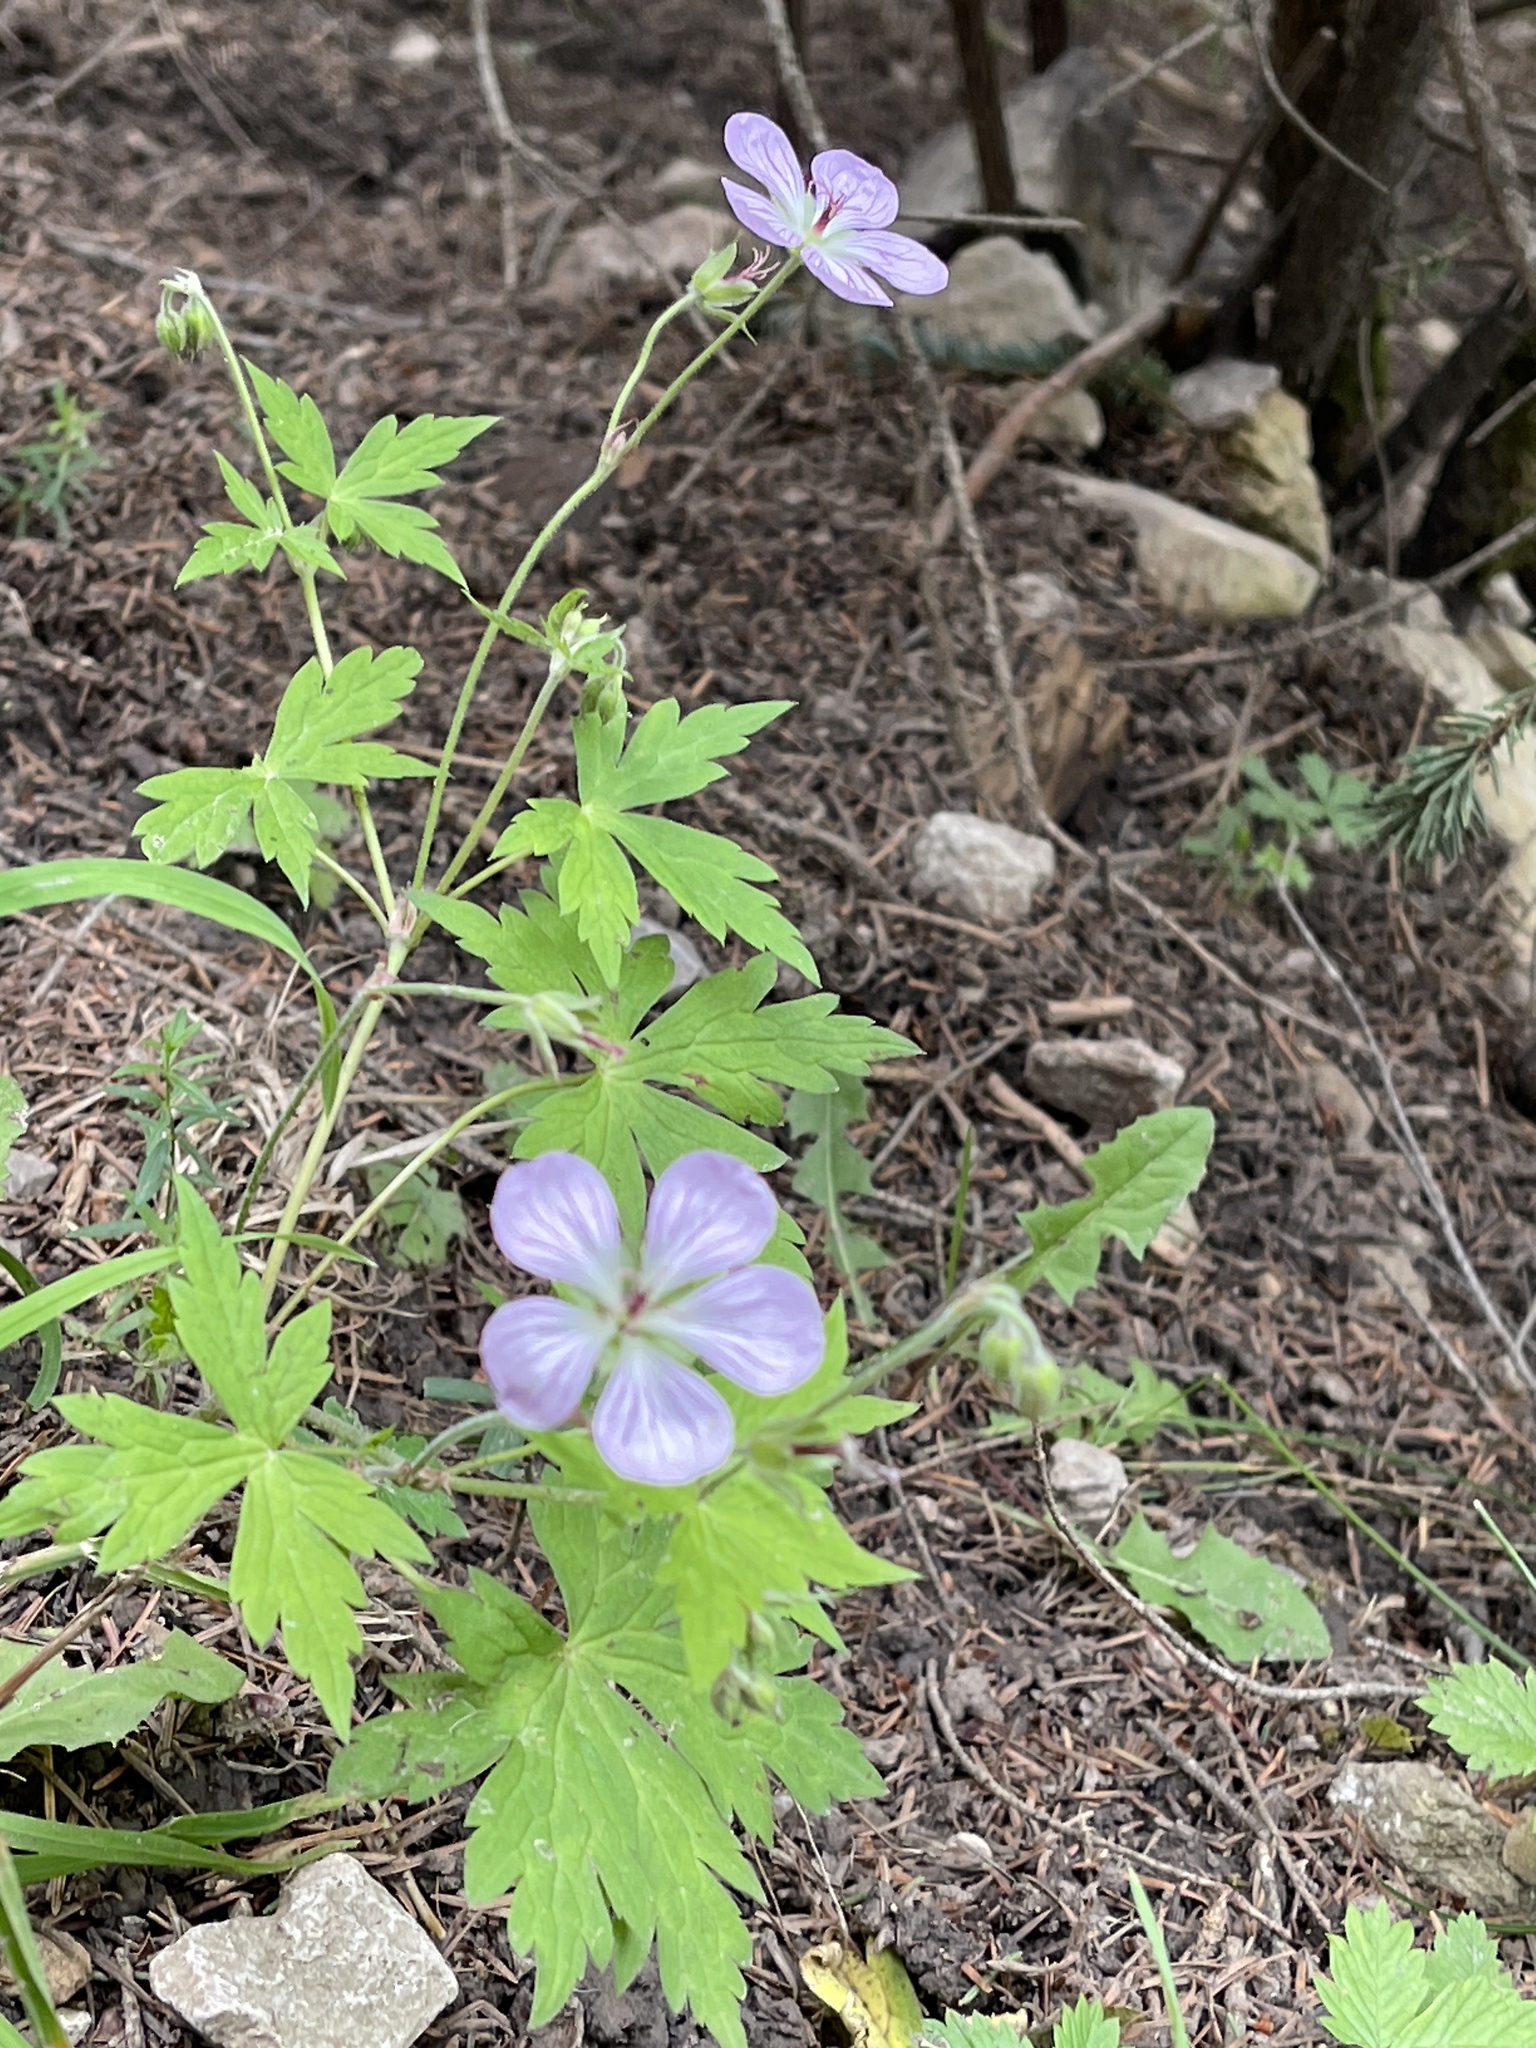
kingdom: Plantae
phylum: Tracheophyta
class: Magnoliopsida
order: Geraniales
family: Geraniaceae
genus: Geranium
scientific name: Geranium richardsonii
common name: Richardson's crane's-bill
